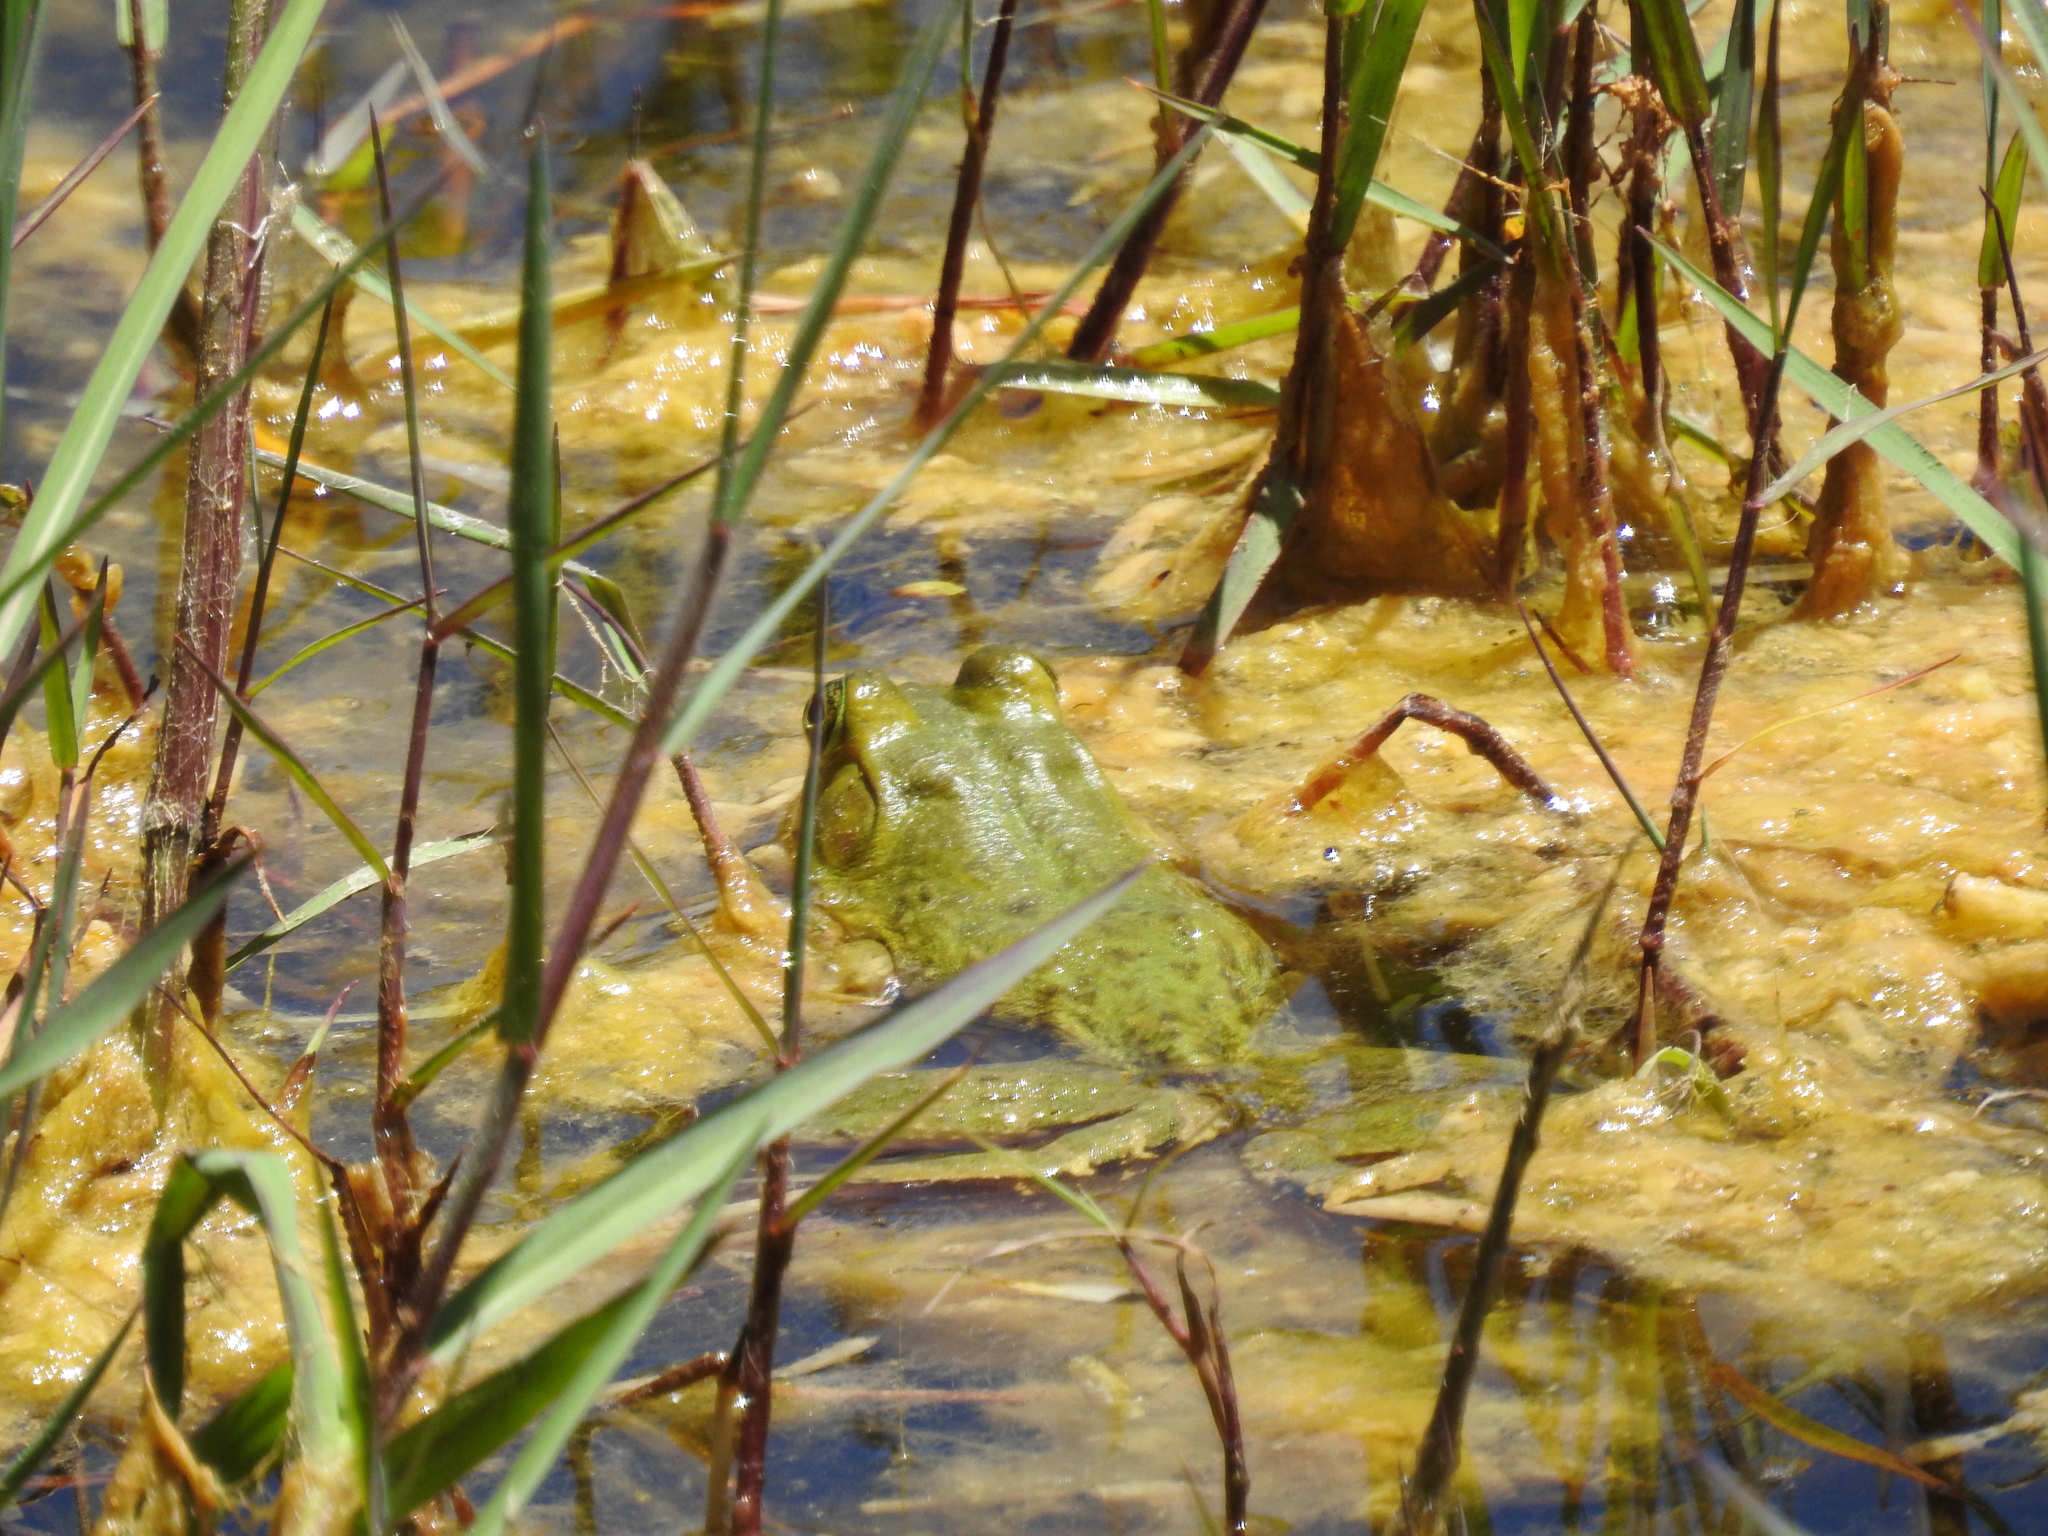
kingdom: Animalia
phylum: Chordata
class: Amphibia
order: Anura
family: Ranidae
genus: Lithobates
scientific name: Lithobates catesbeianus
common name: American bullfrog
